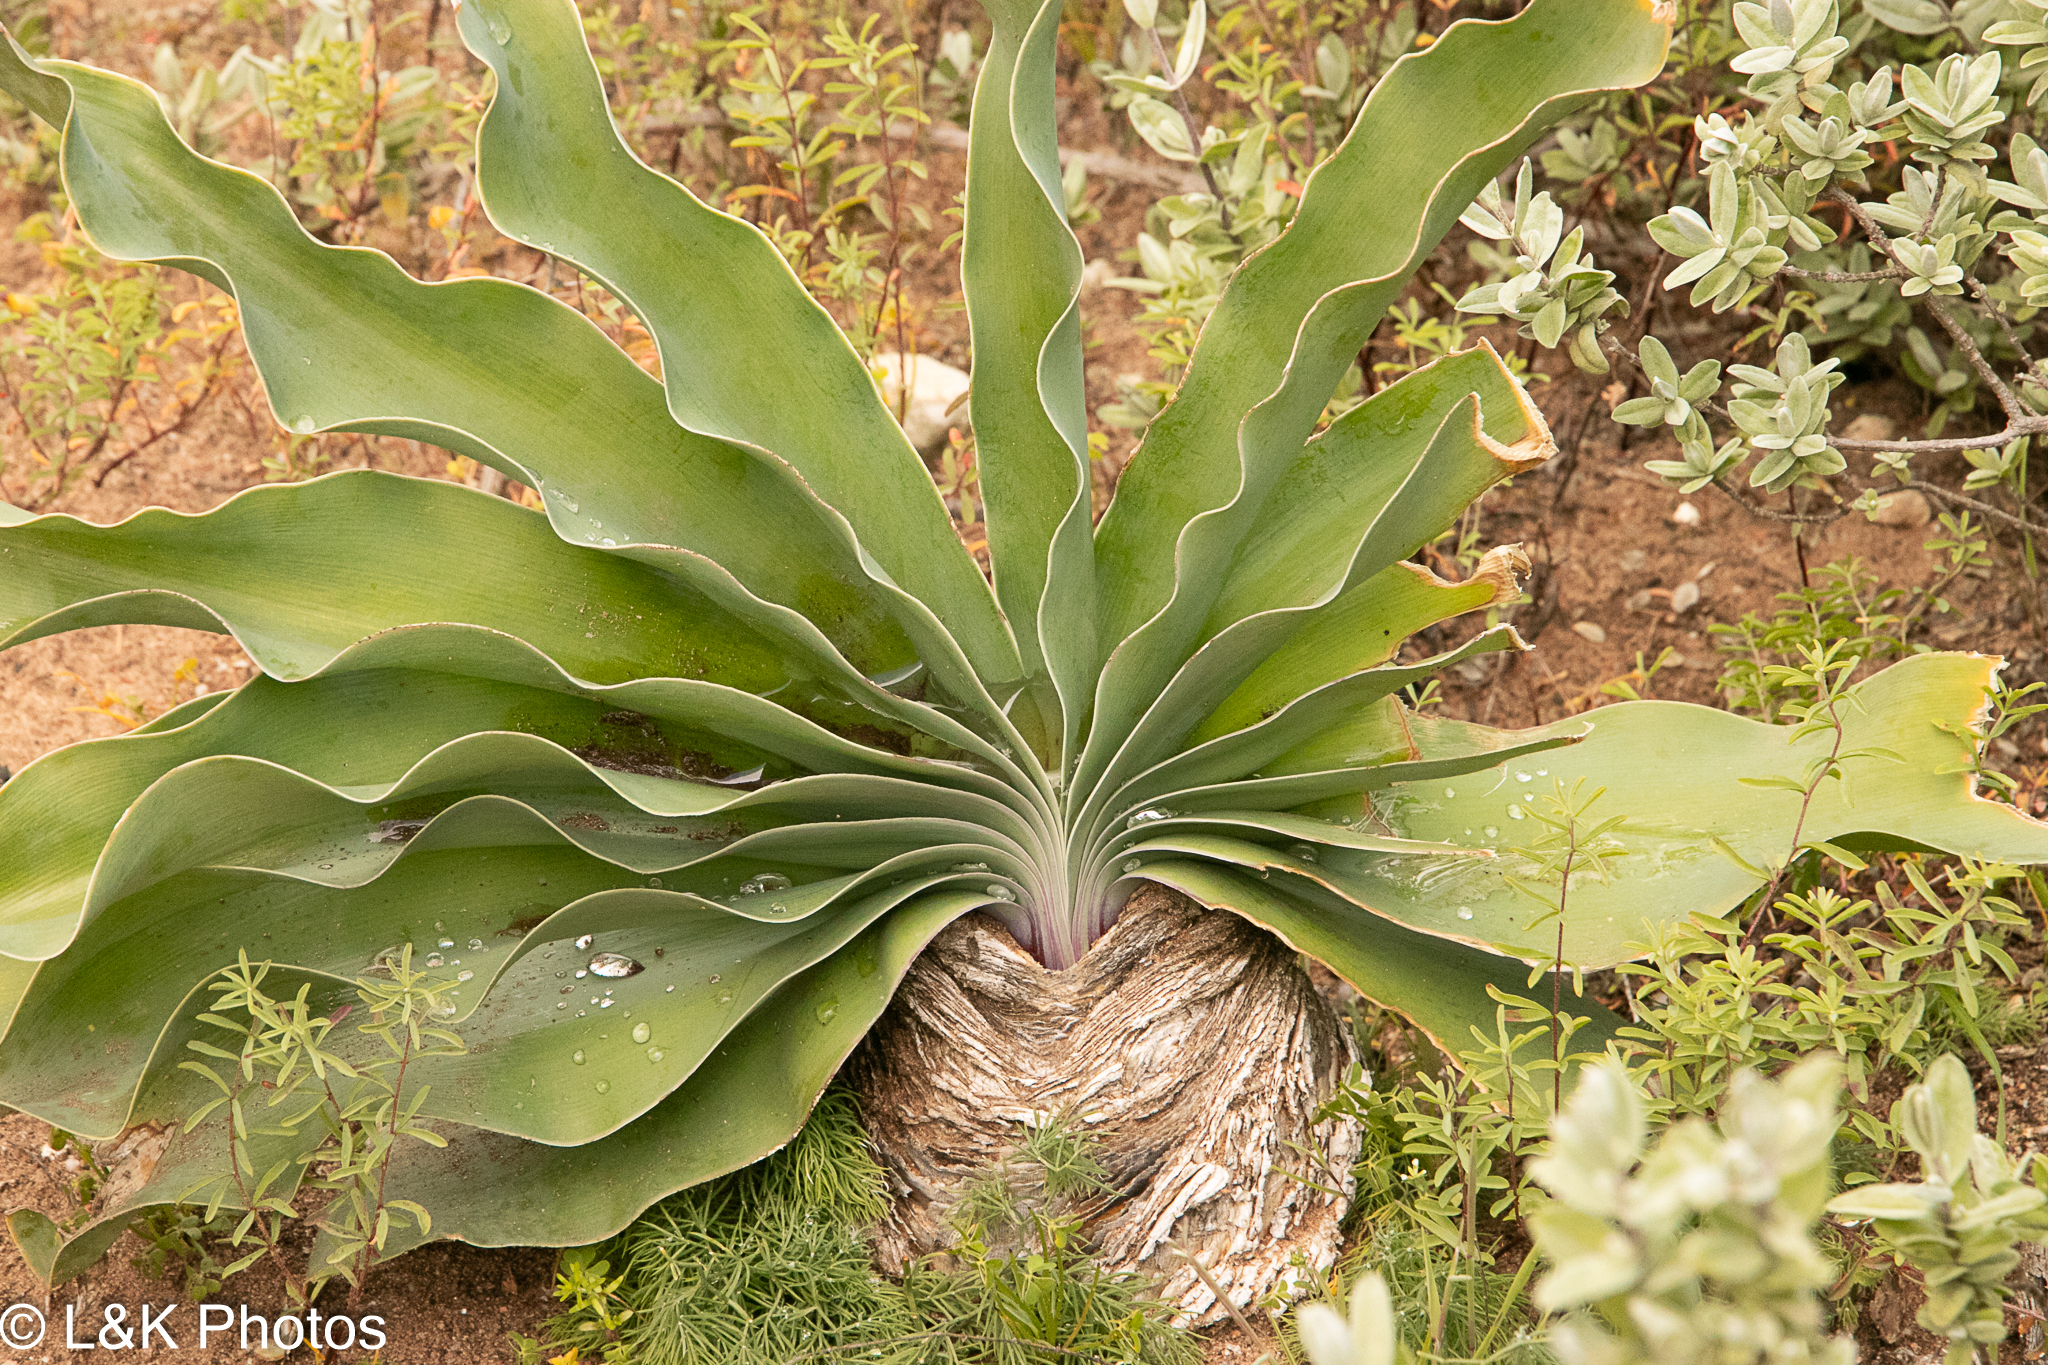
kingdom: Plantae
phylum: Tracheophyta
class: Liliopsida
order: Asparagales
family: Amaryllidaceae
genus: Boophone
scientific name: Boophone haemanthoides
